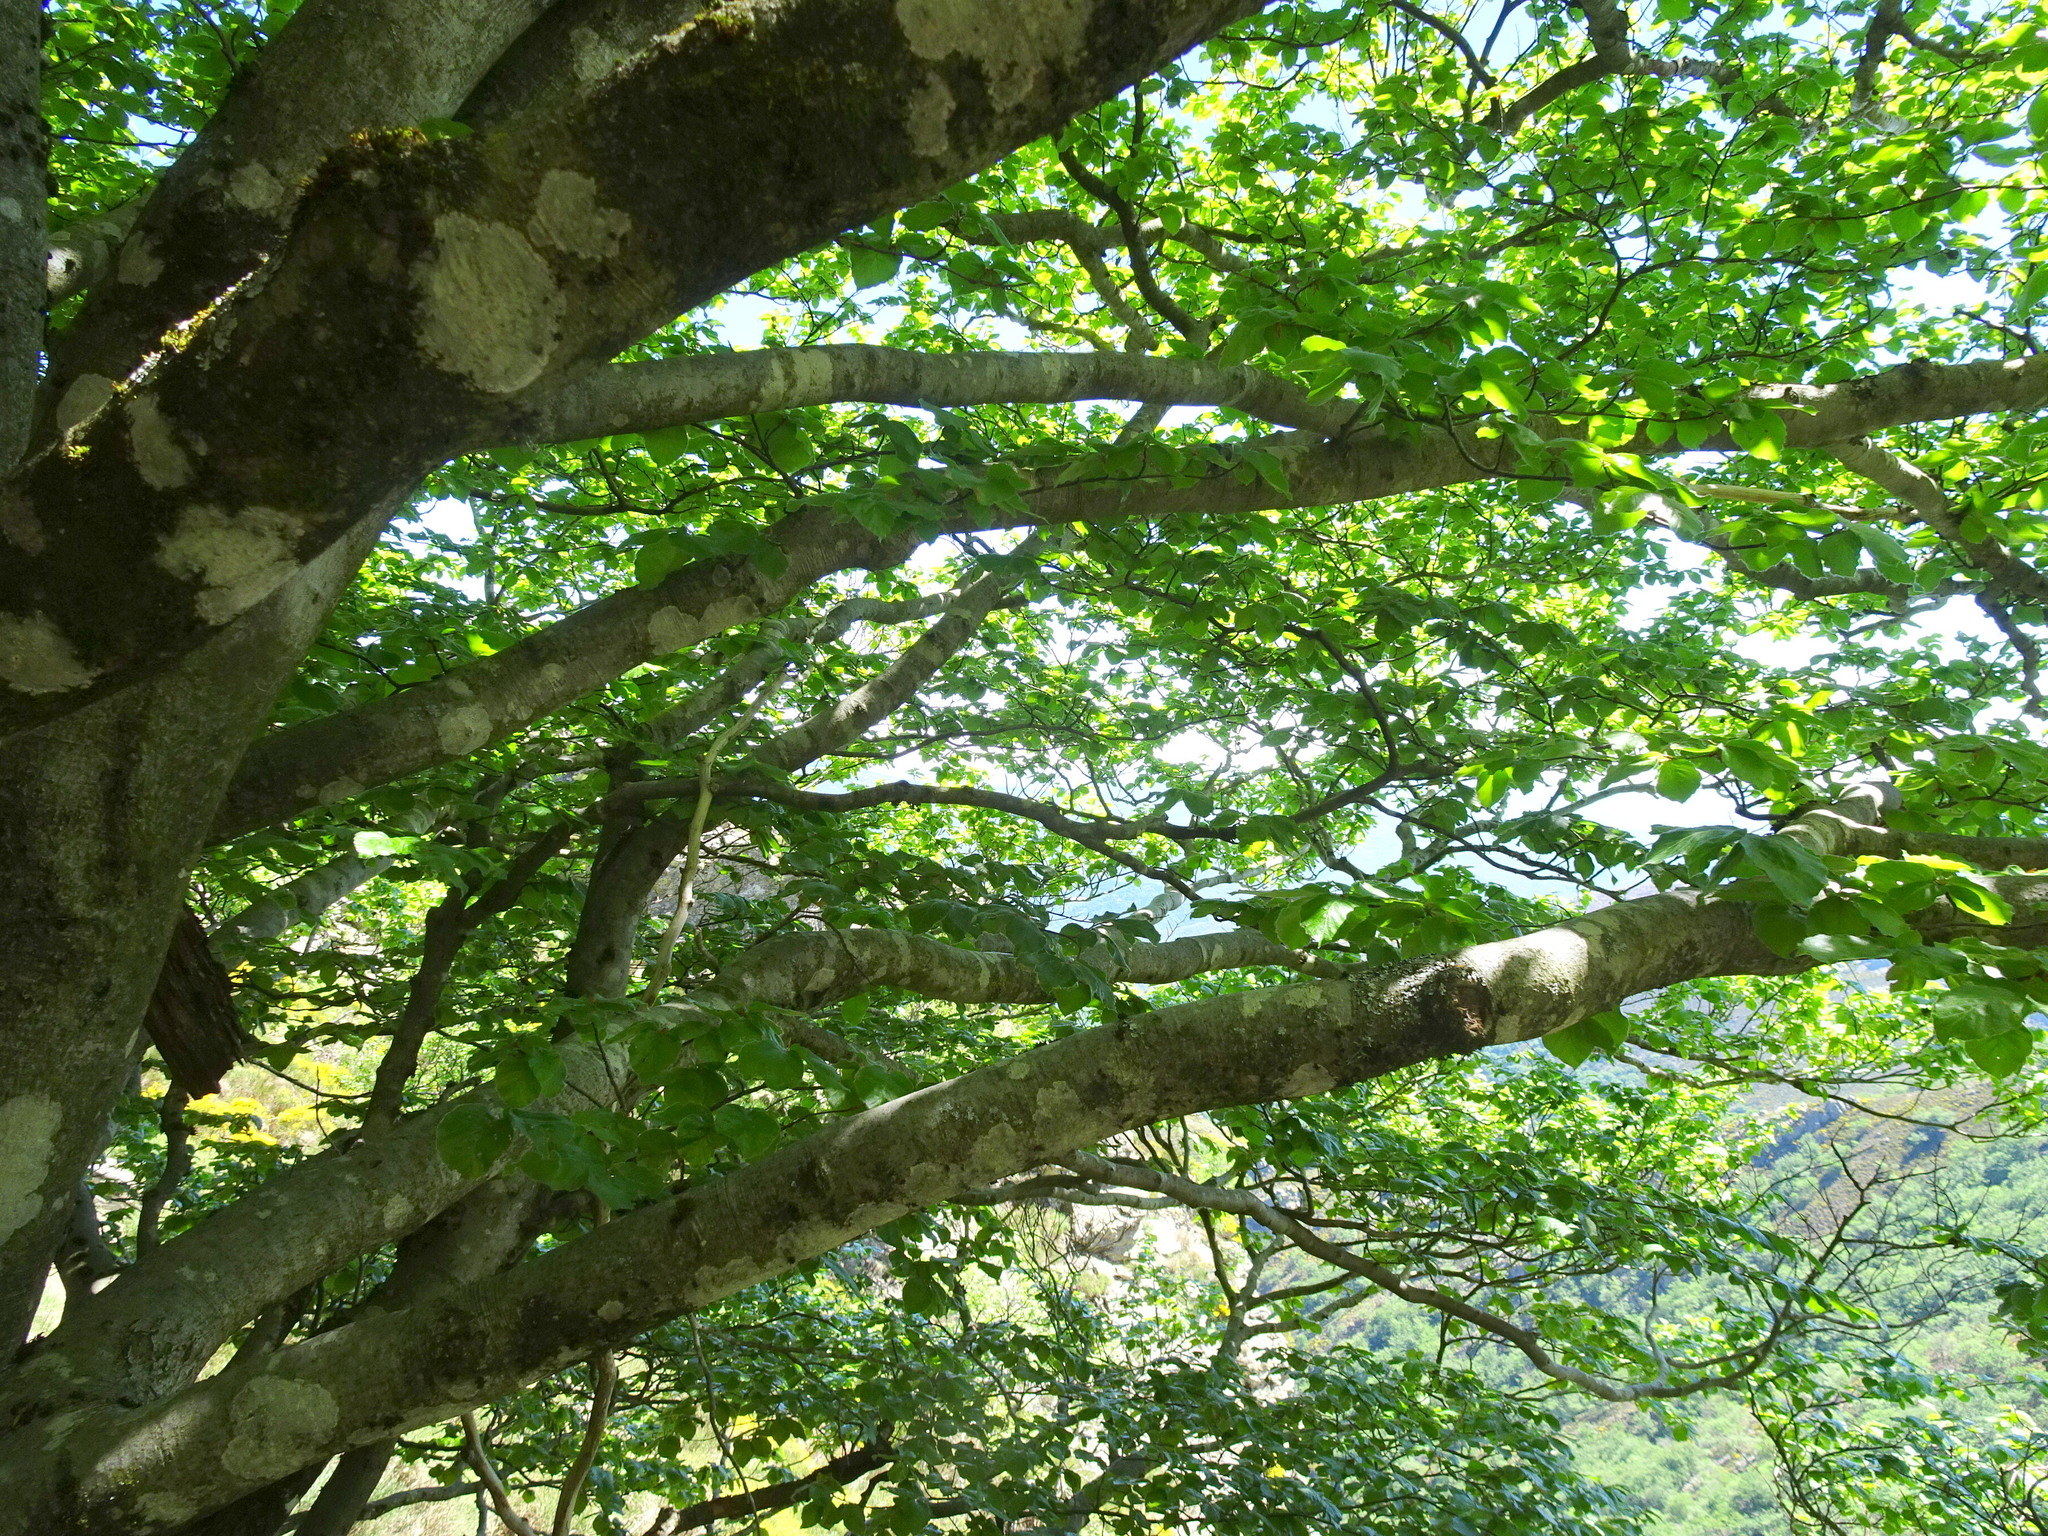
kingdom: Plantae
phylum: Tracheophyta
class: Magnoliopsida
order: Fagales
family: Fagaceae
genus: Fagus
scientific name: Fagus sylvatica
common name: Beech
